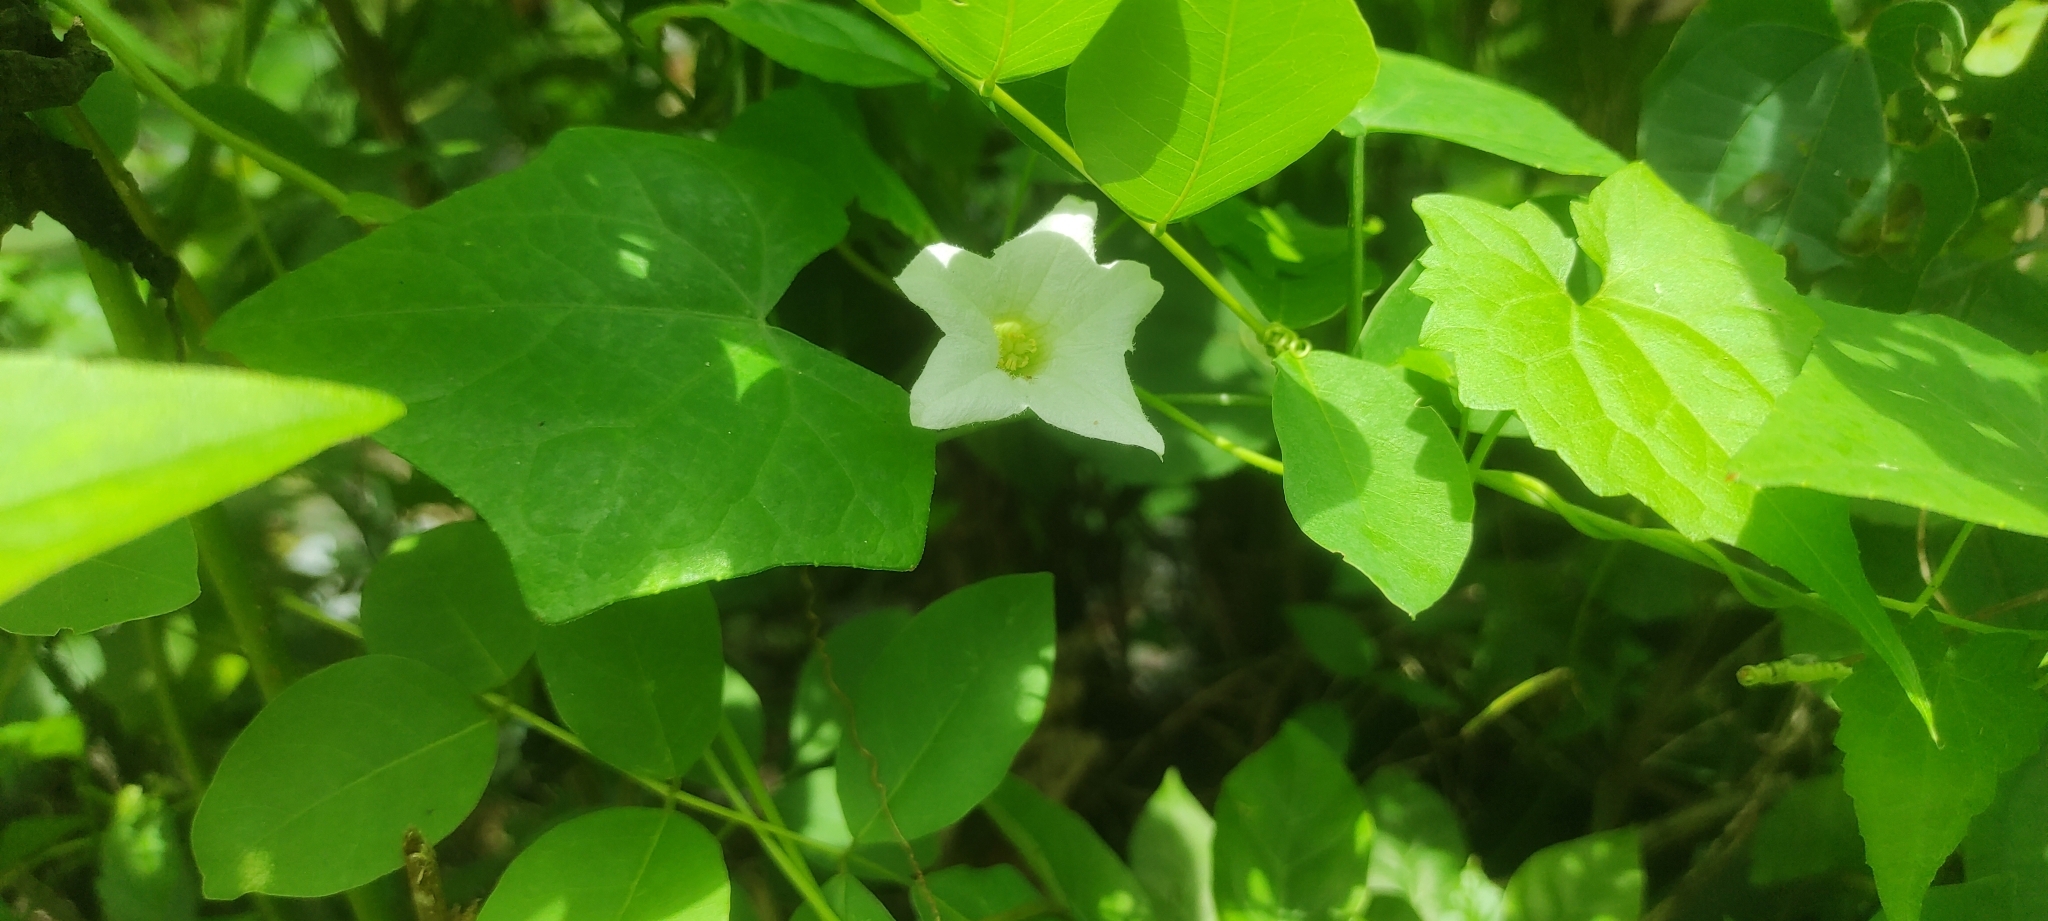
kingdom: Plantae
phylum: Tracheophyta
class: Magnoliopsida
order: Cucurbitales
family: Cucurbitaceae
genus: Coccinia
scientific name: Coccinia grandis
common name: Ivy gourd
